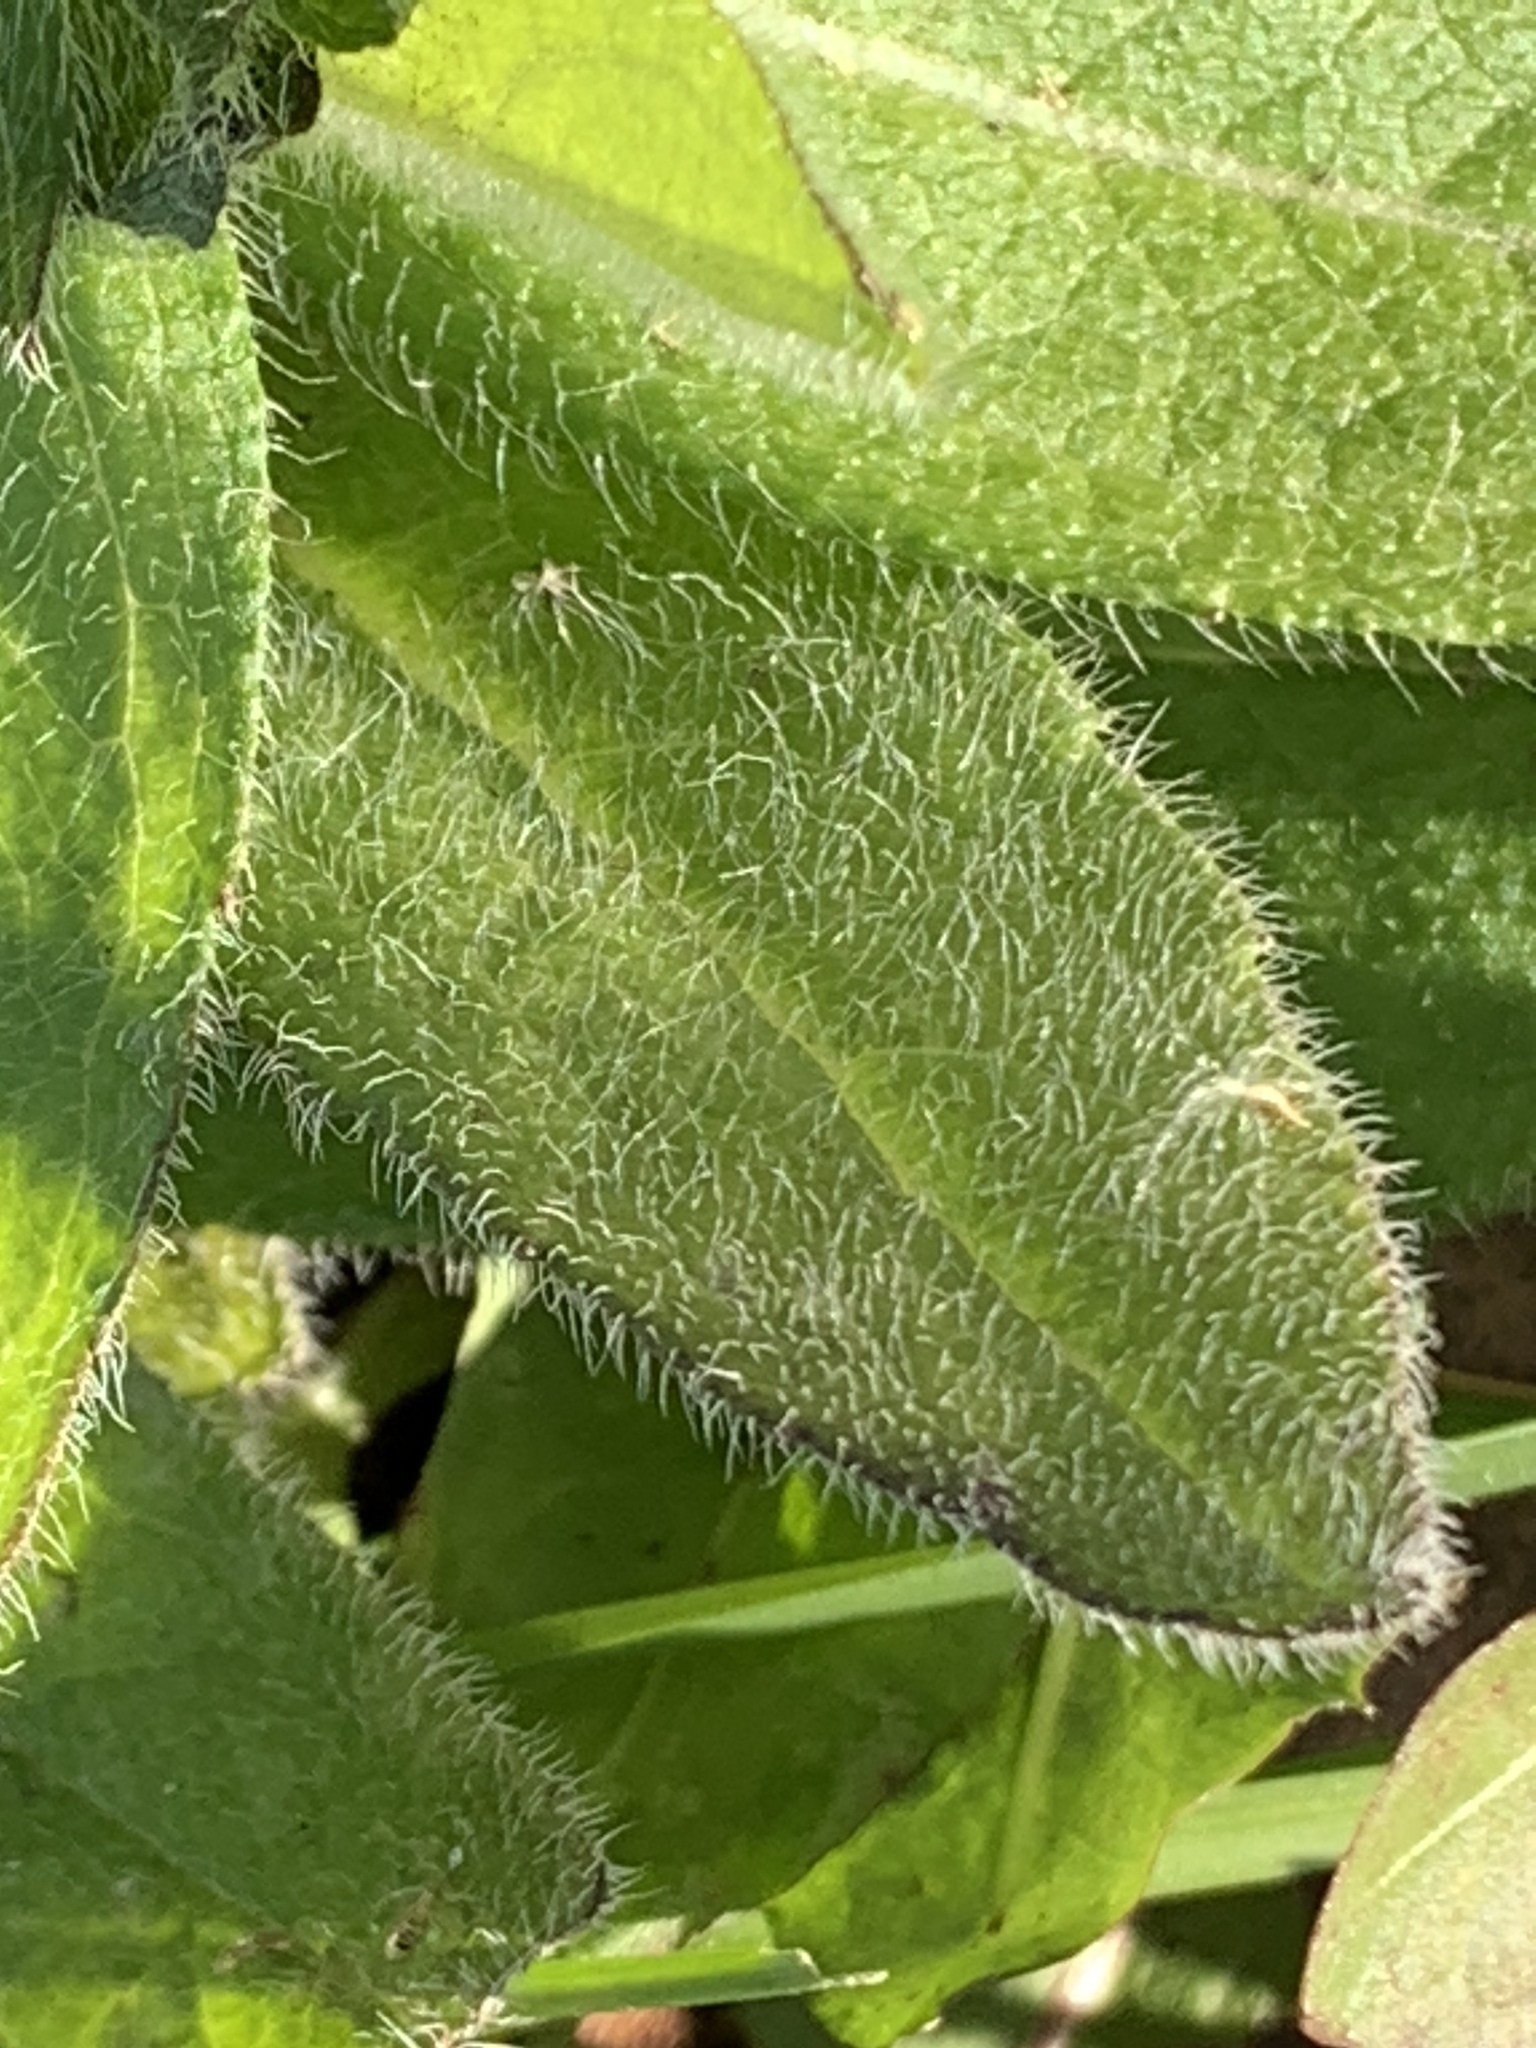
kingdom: Plantae
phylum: Tracheophyta
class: Magnoliopsida
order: Asterales
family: Asteraceae
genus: Rudbeckia
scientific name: Rudbeckia hirta
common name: Black-eyed-susan
